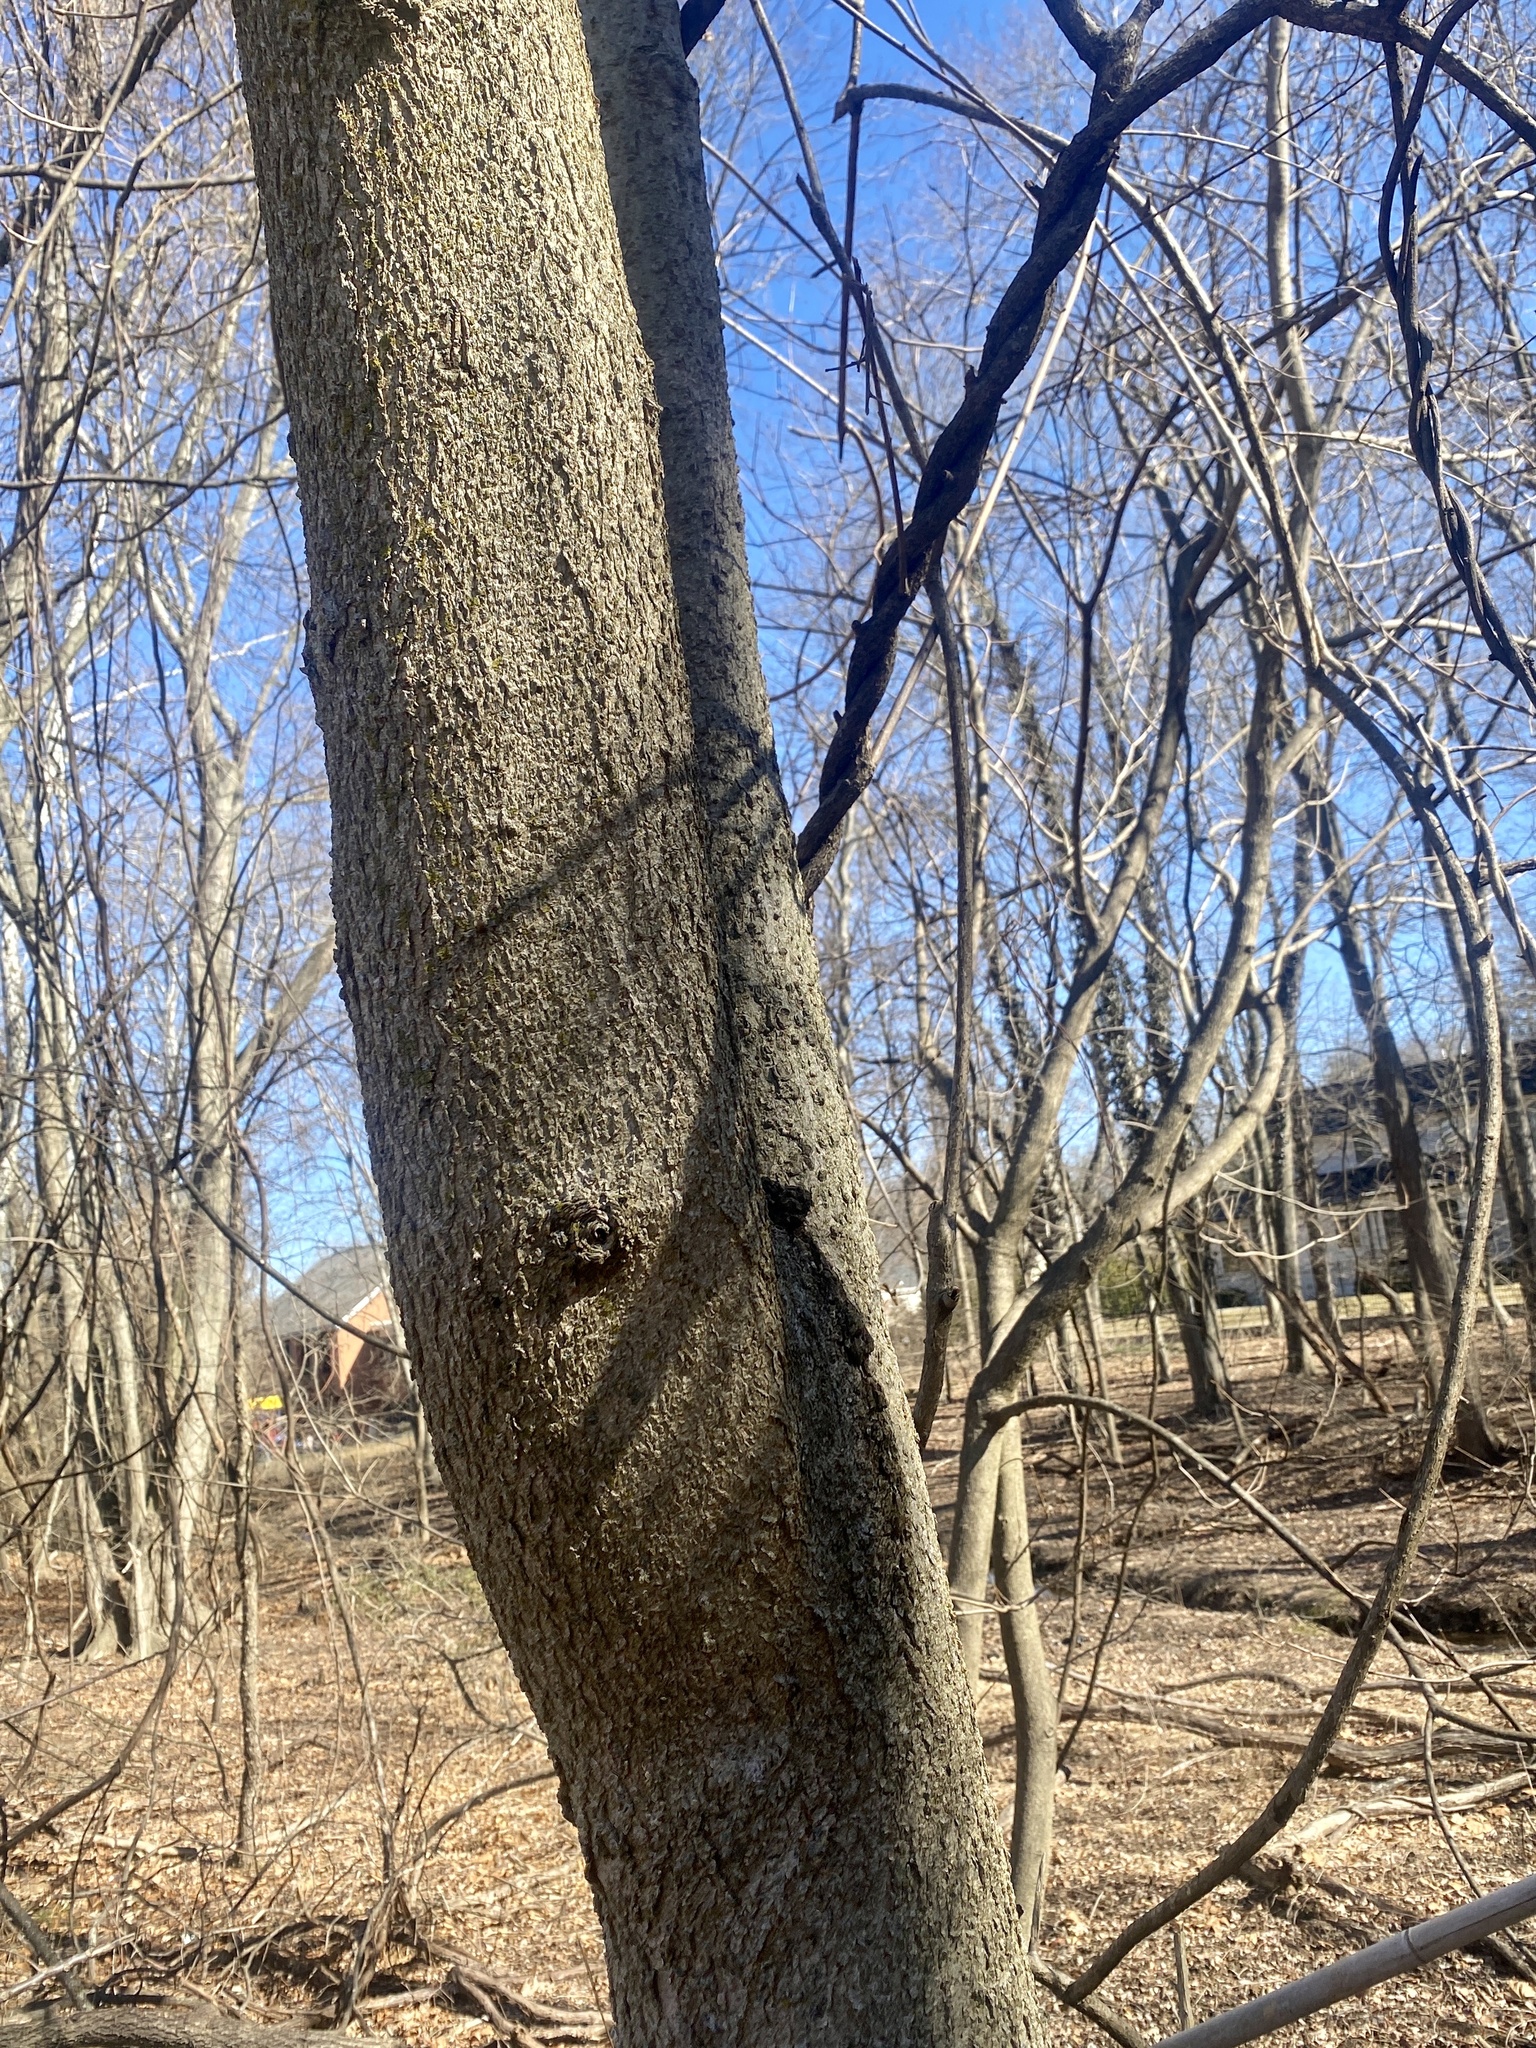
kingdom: Plantae
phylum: Tracheophyta
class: Magnoliopsida
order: Sapindales
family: Sapindaceae
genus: Aesculus
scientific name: Aesculus flava
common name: Yellow buckeye
